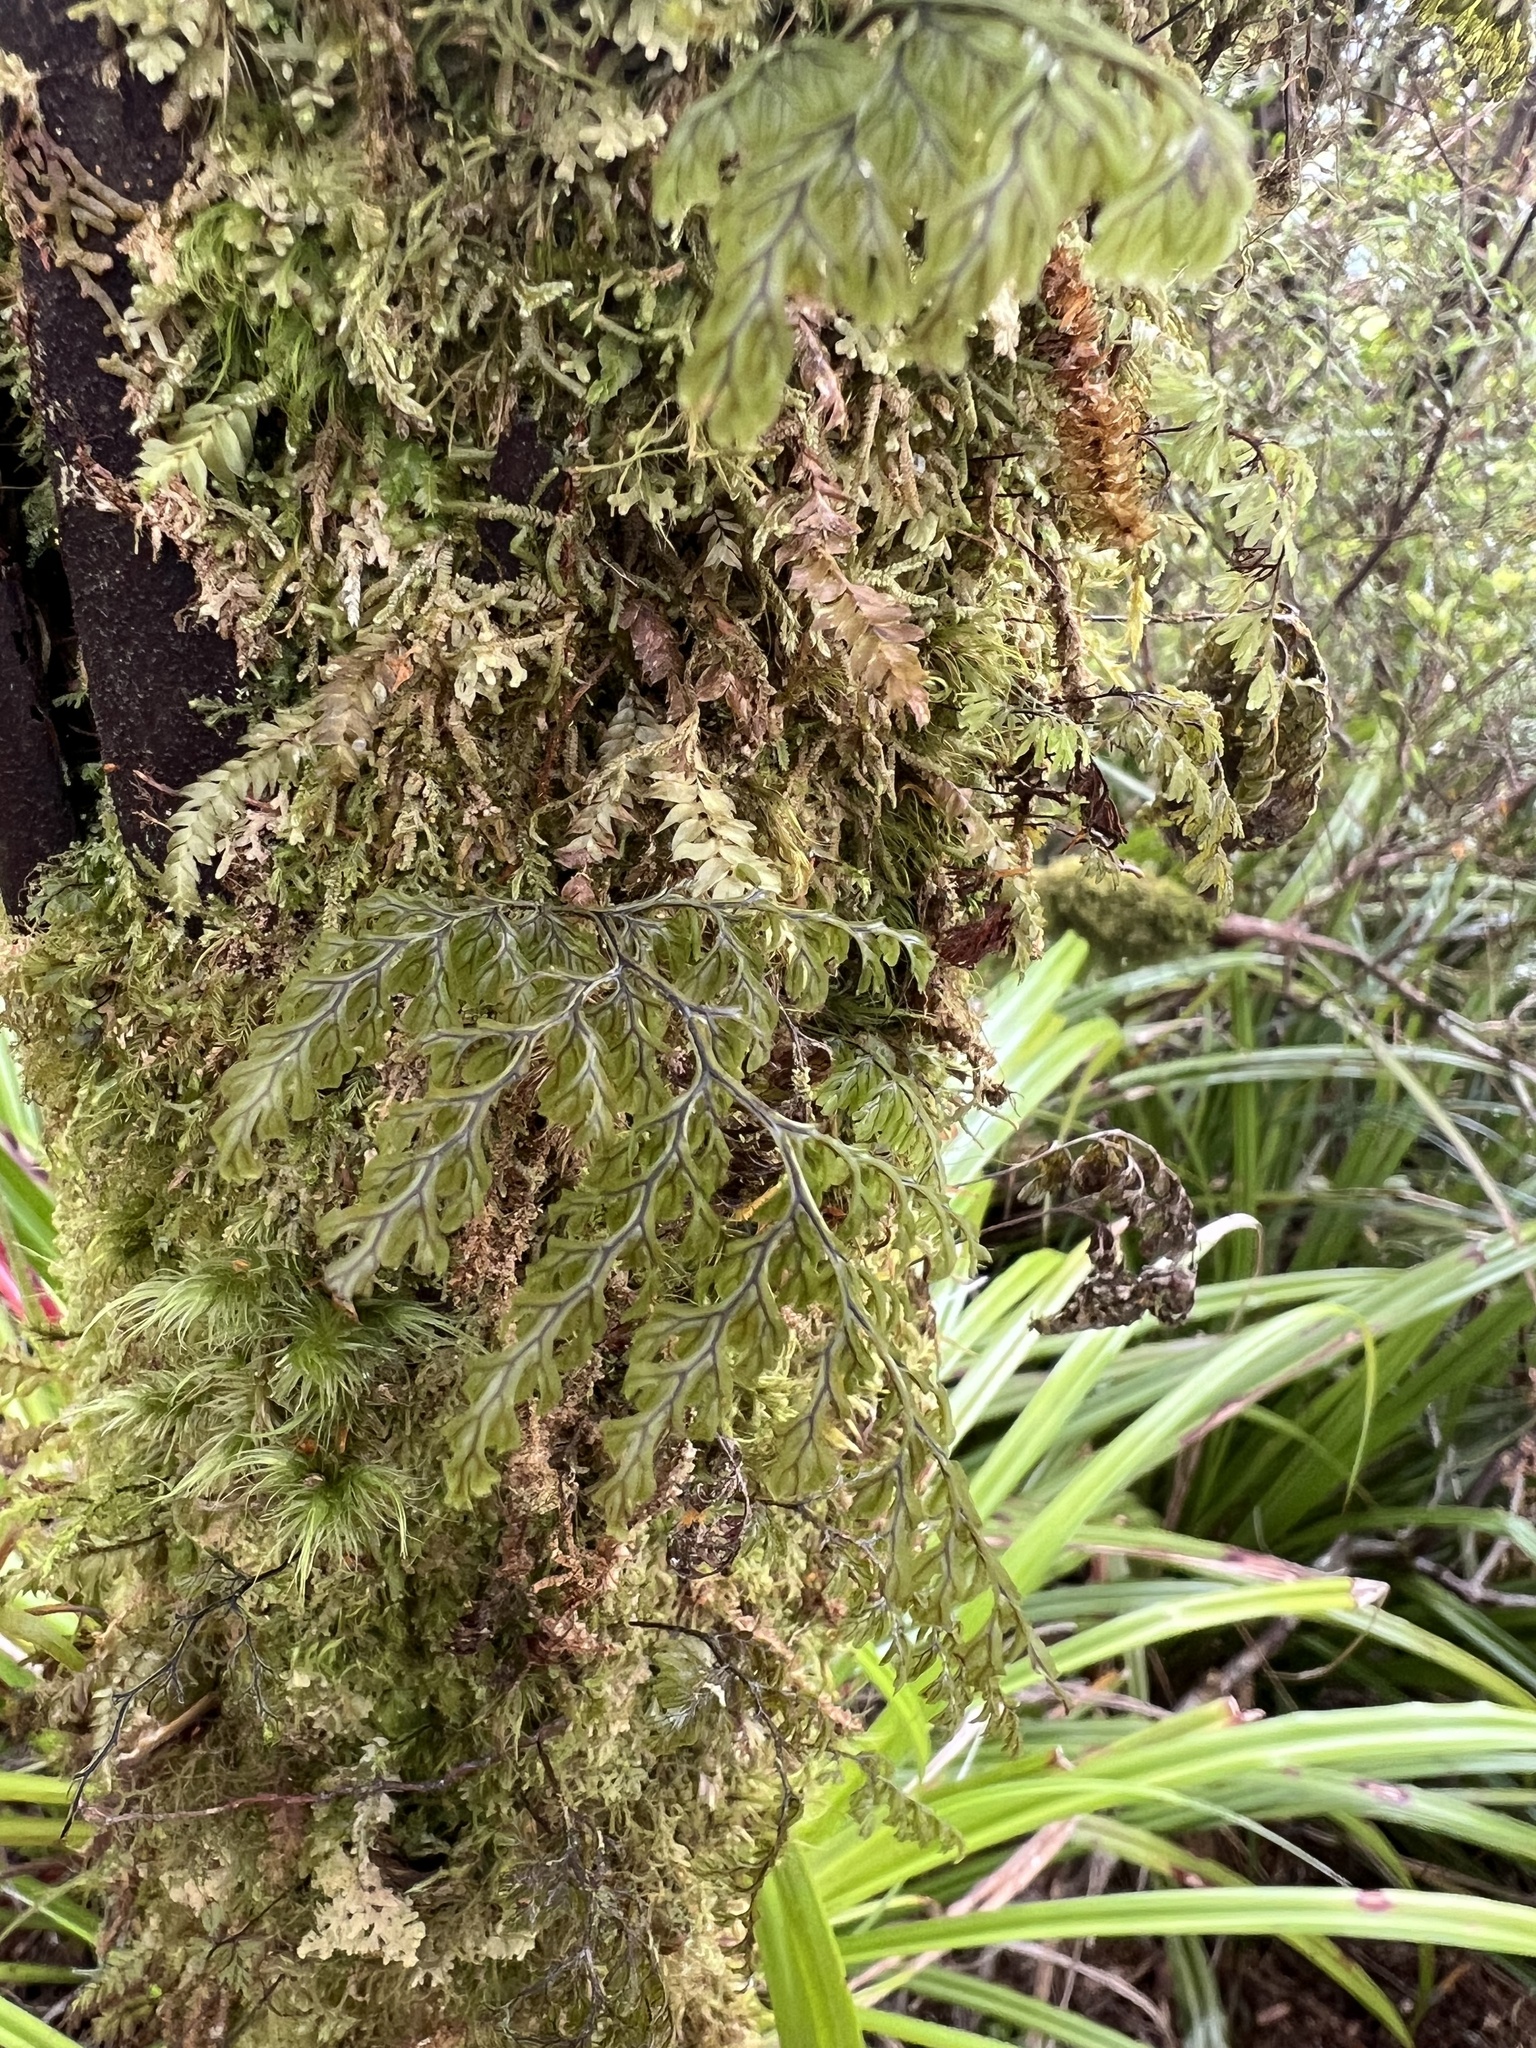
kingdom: Plantae
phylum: Tracheophyta
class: Polypodiopsida
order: Hymenophyllales
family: Hymenophyllaceae
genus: Hymenophyllum
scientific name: Hymenophyllum villosum
